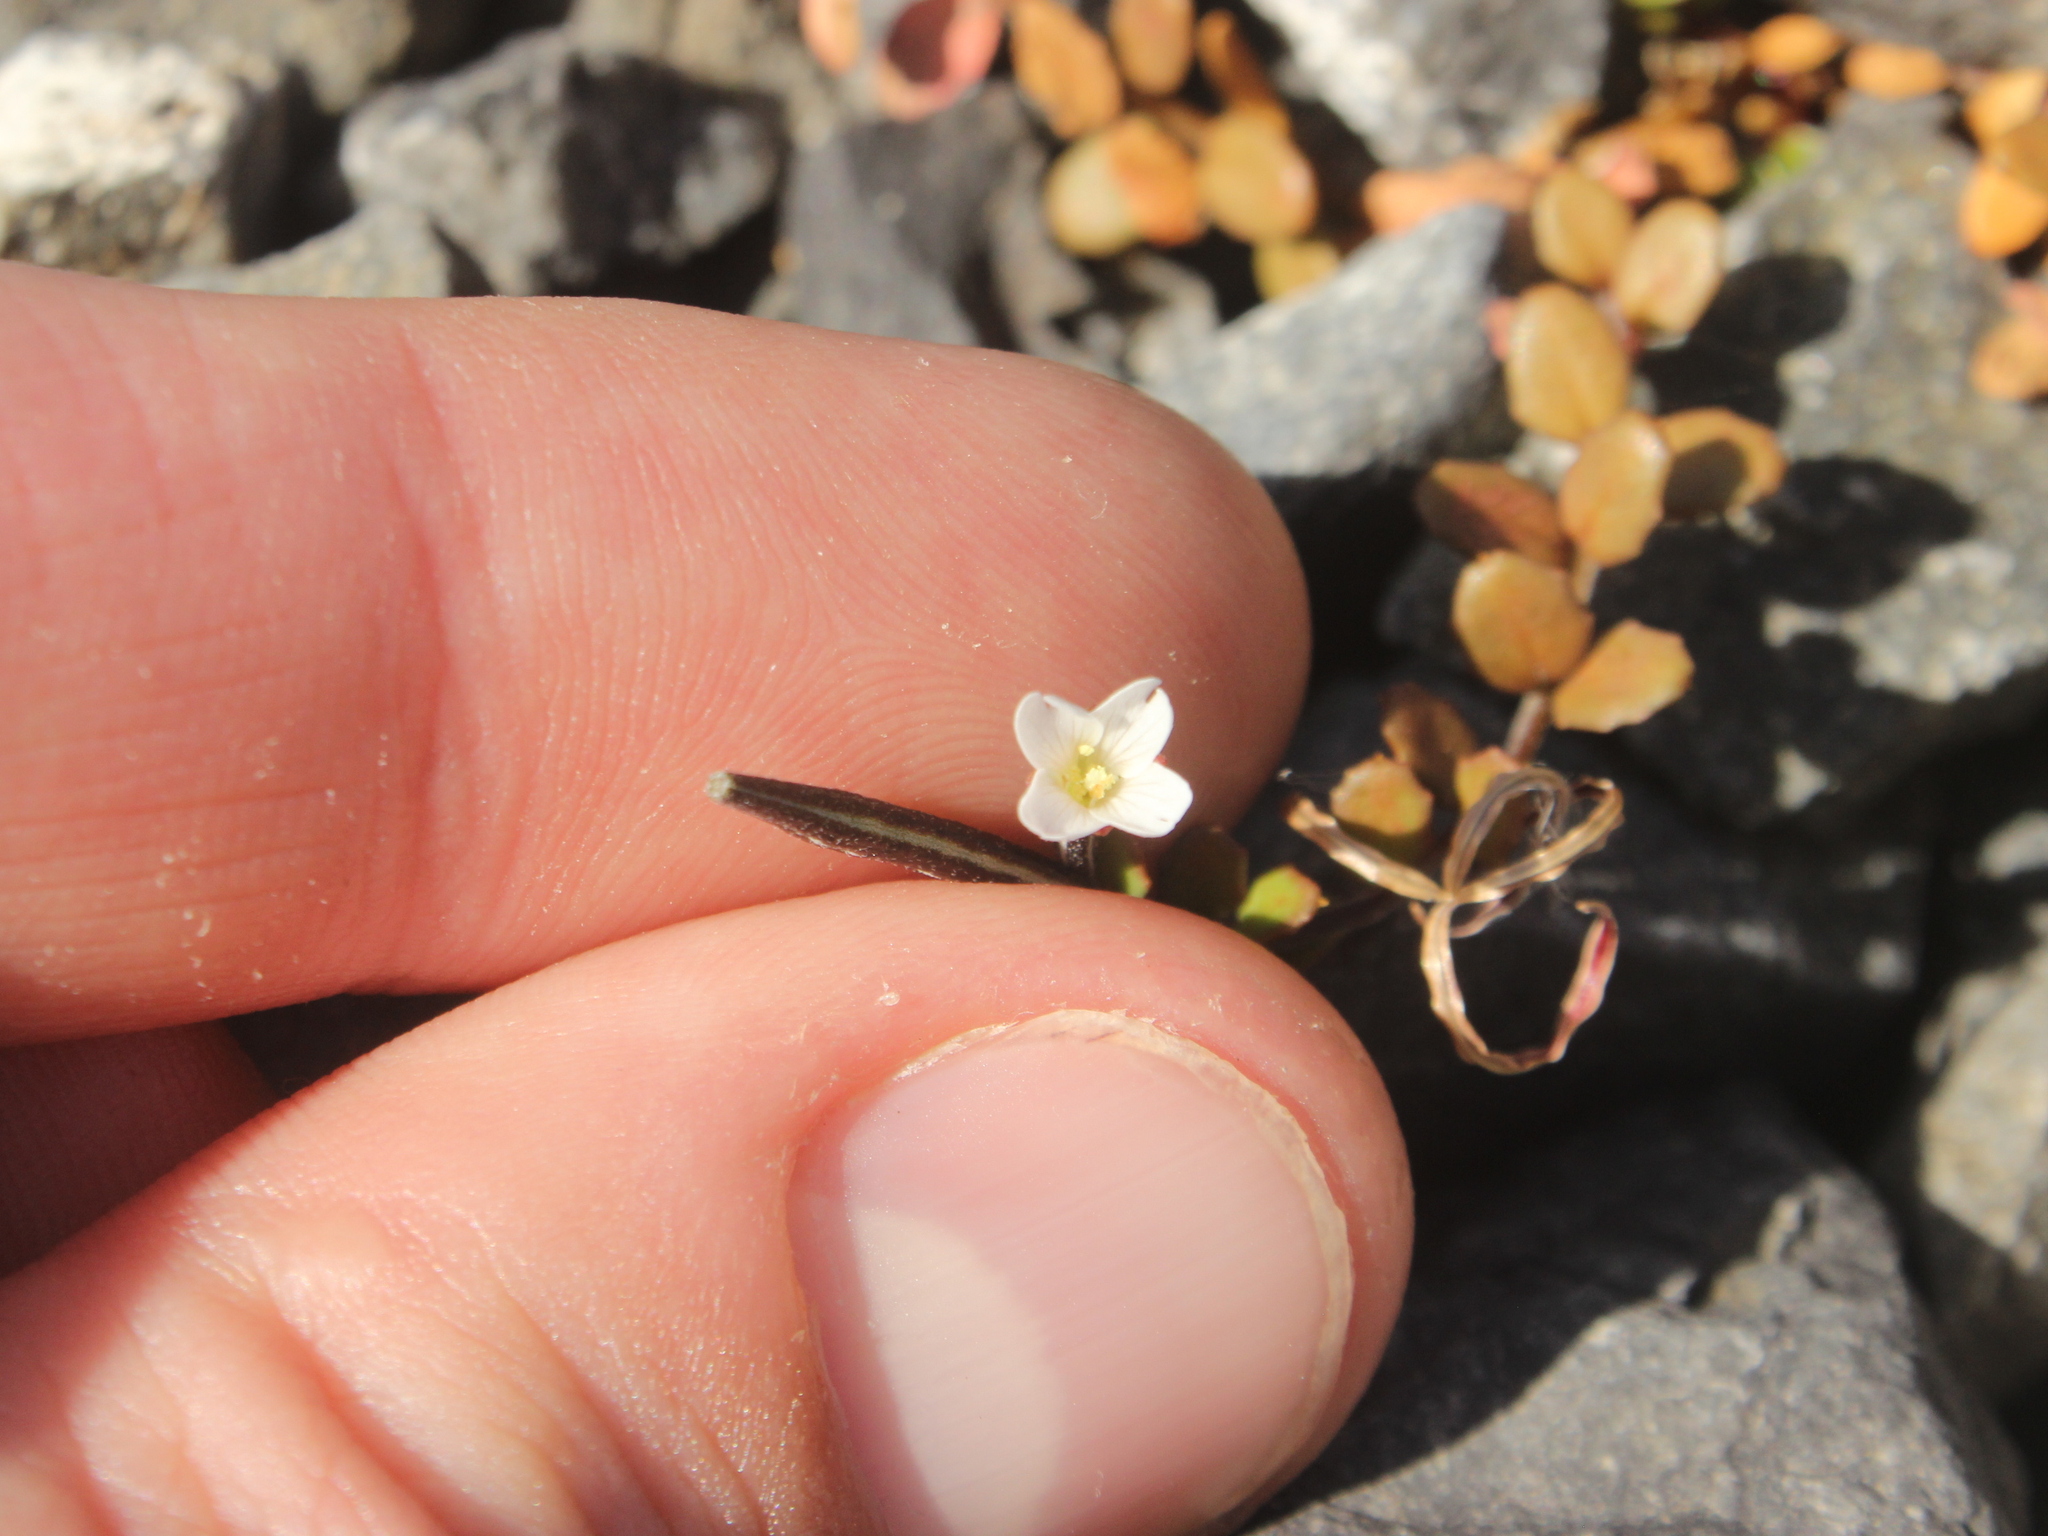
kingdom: Plantae
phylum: Tracheophyta
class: Magnoliopsida
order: Myrtales
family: Onagraceae
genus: Epilobium
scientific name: Epilobium microphyllum
